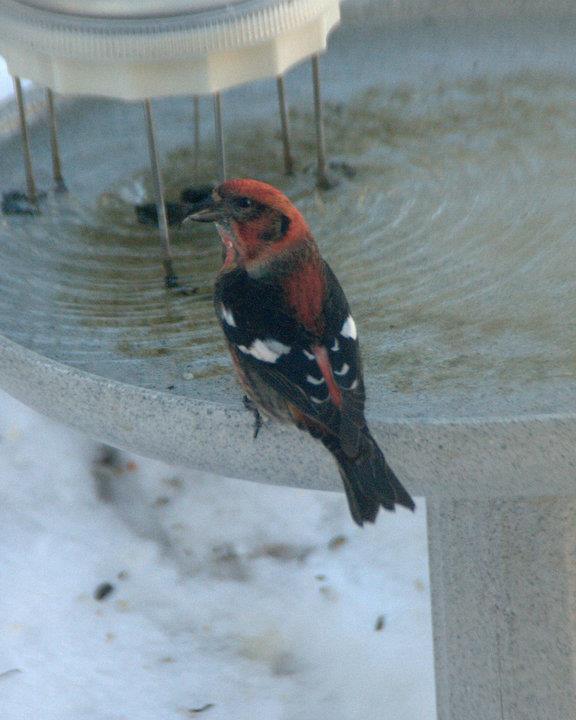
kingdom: Animalia
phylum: Chordata
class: Aves
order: Passeriformes
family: Fringillidae
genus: Loxia
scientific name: Loxia leucoptera
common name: Two-barred crossbill
